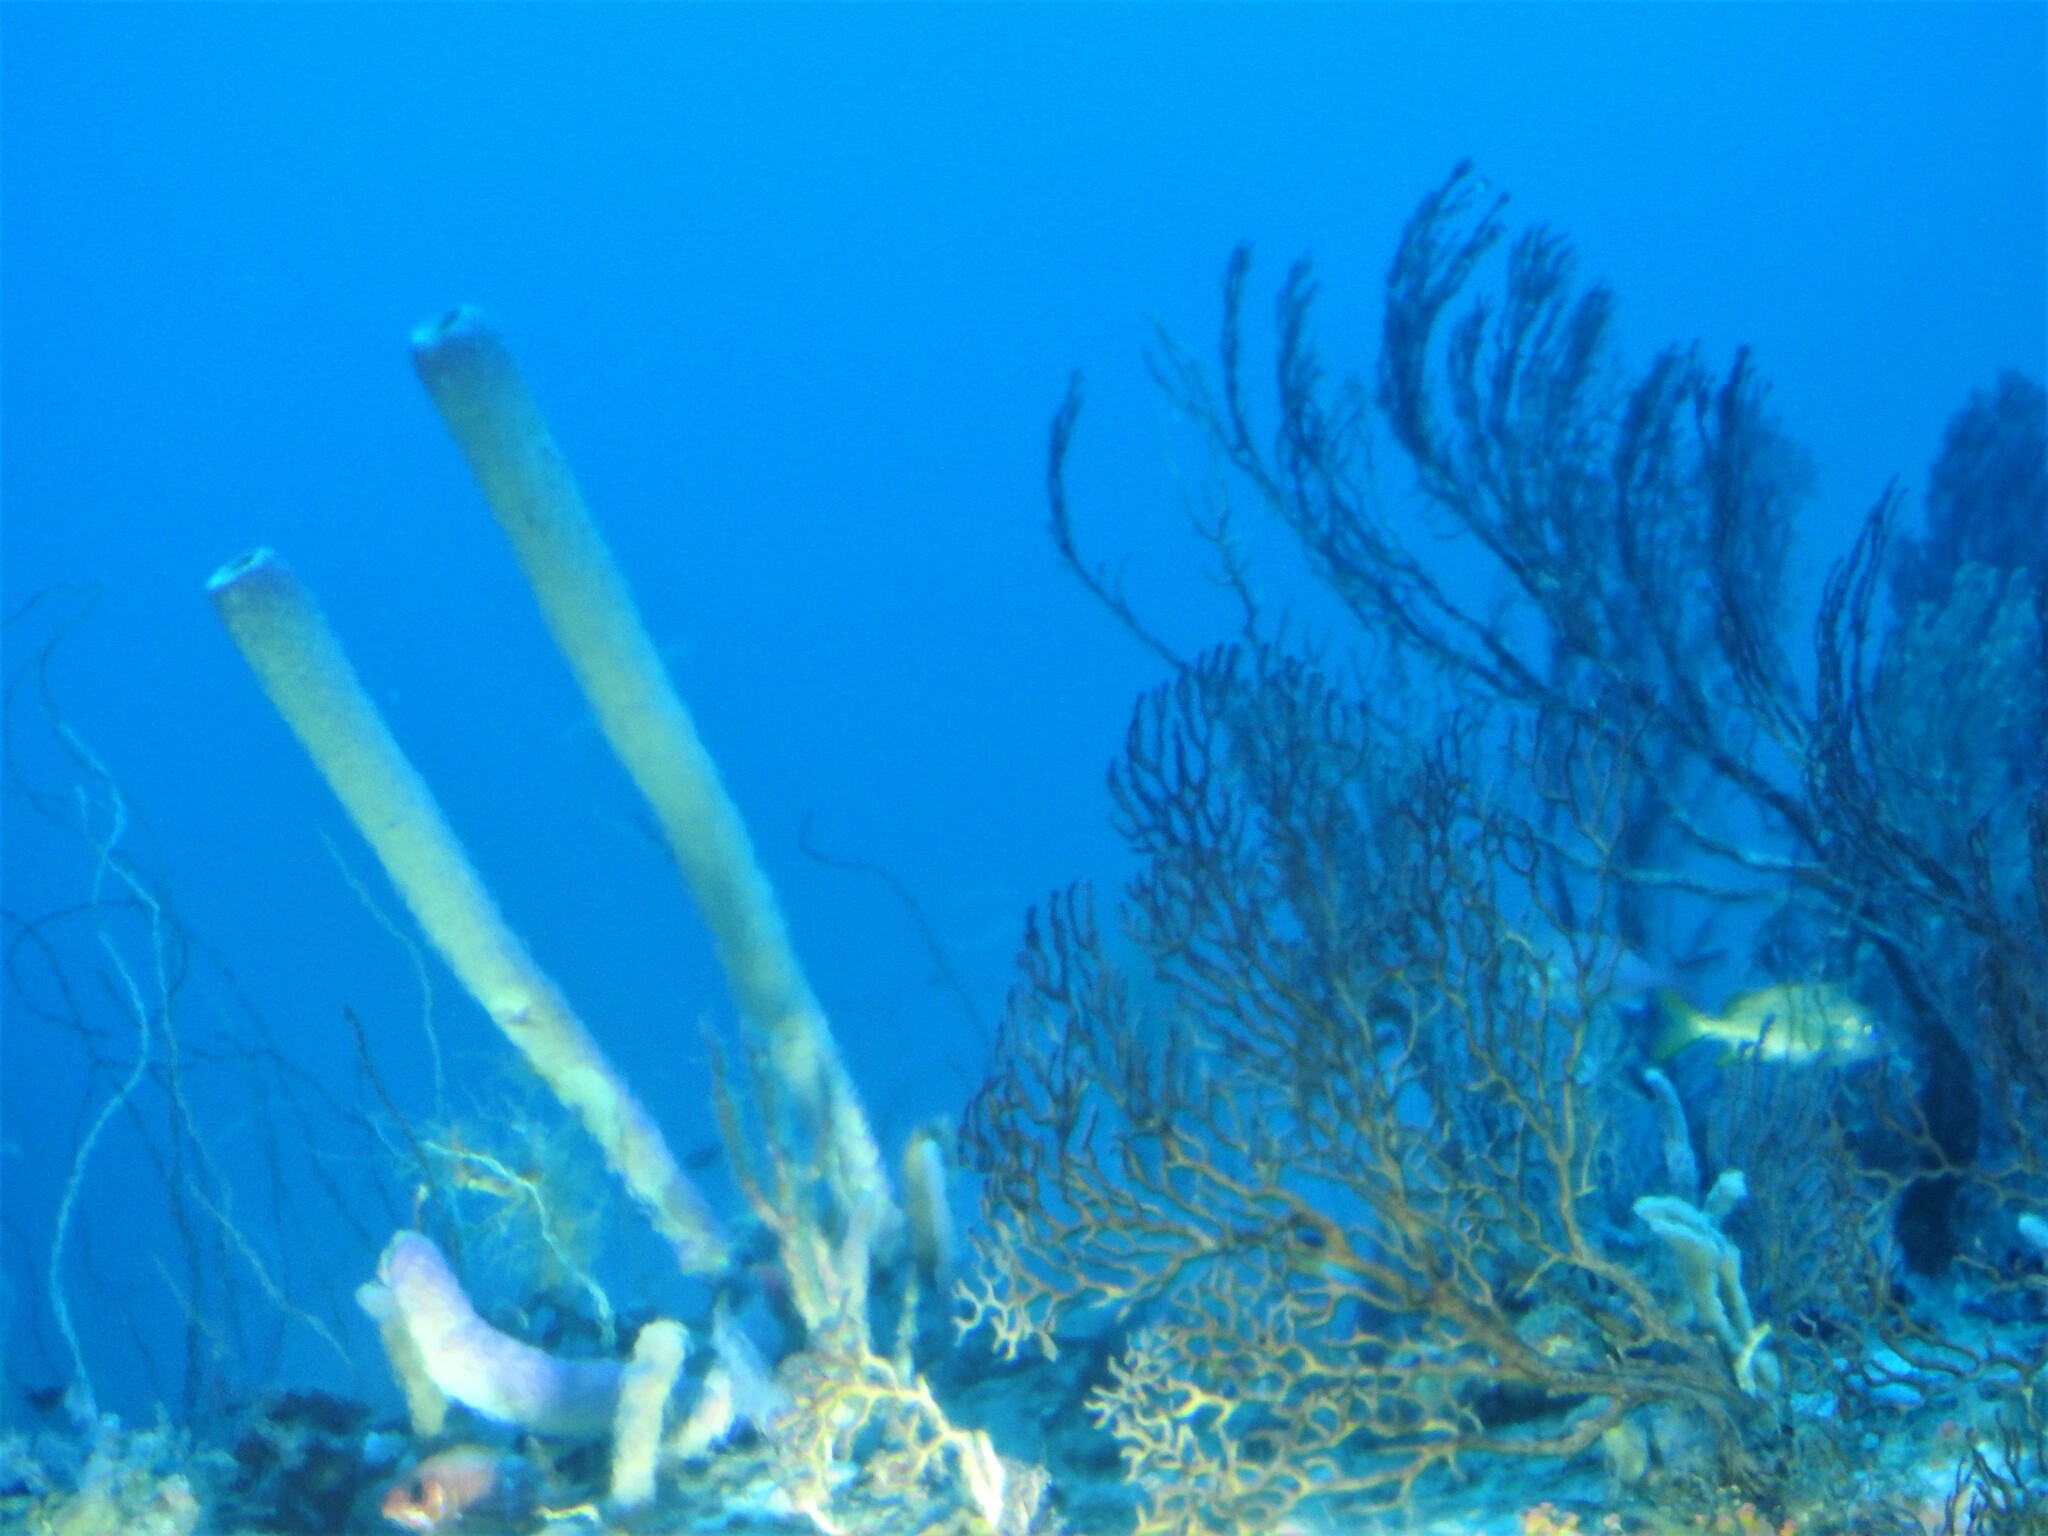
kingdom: Animalia
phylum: Porifera
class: Demospongiae
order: Verongiida
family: Aplysinidae
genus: Aplysina
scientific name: Aplysina archeri
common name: Stove-pipe sponge
